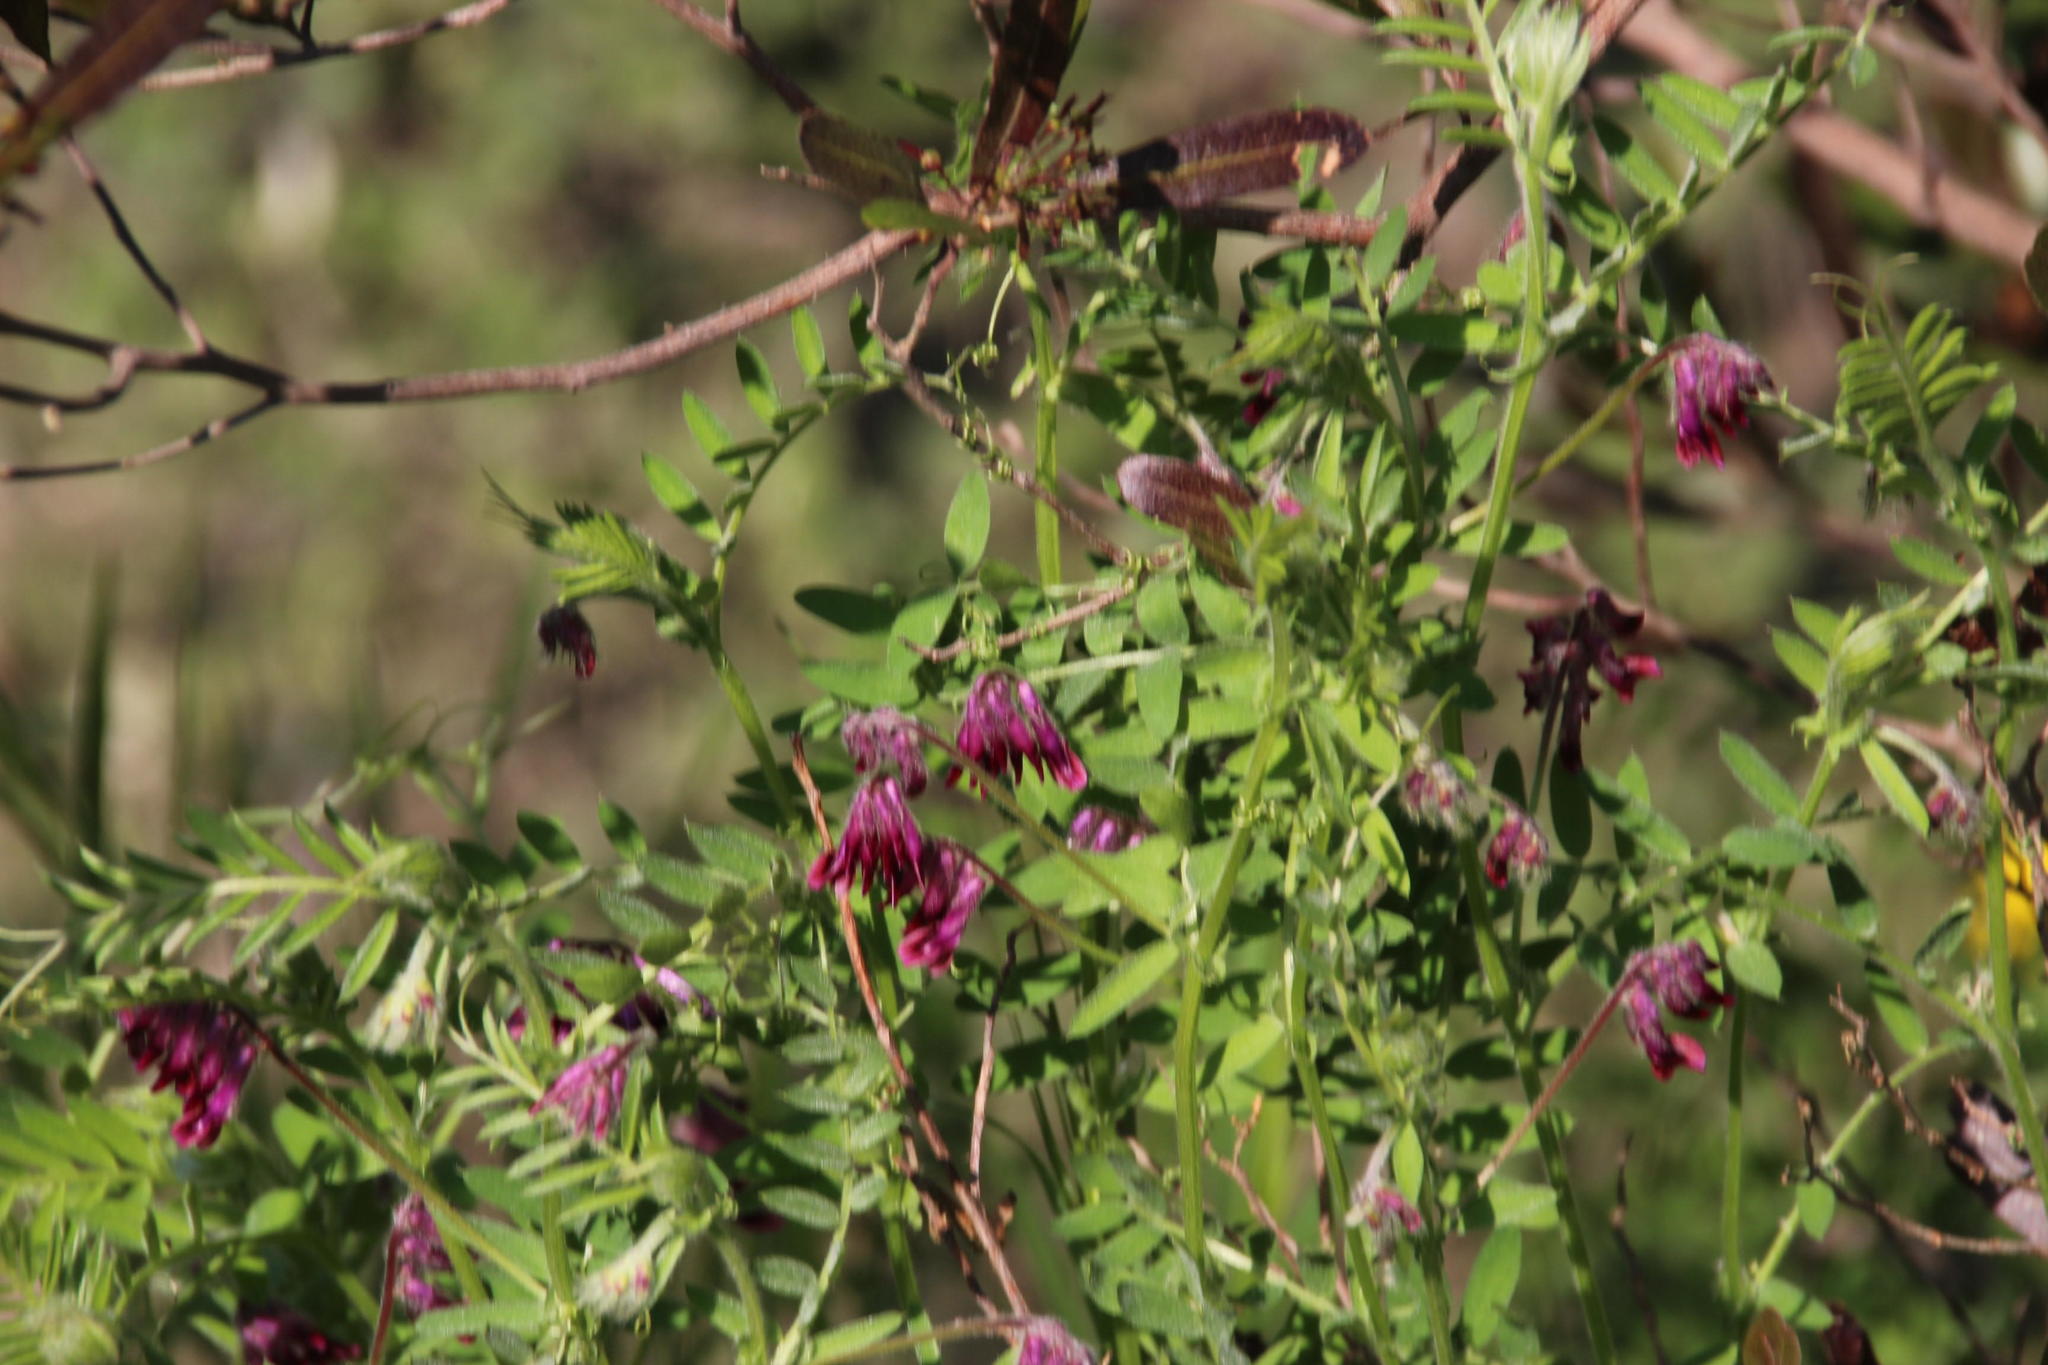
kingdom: Plantae
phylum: Tracheophyta
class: Magnoliopsida
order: Fabales
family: Fabaceae
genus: Vicia
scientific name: Vicia benghalensis
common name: Purple vetch
